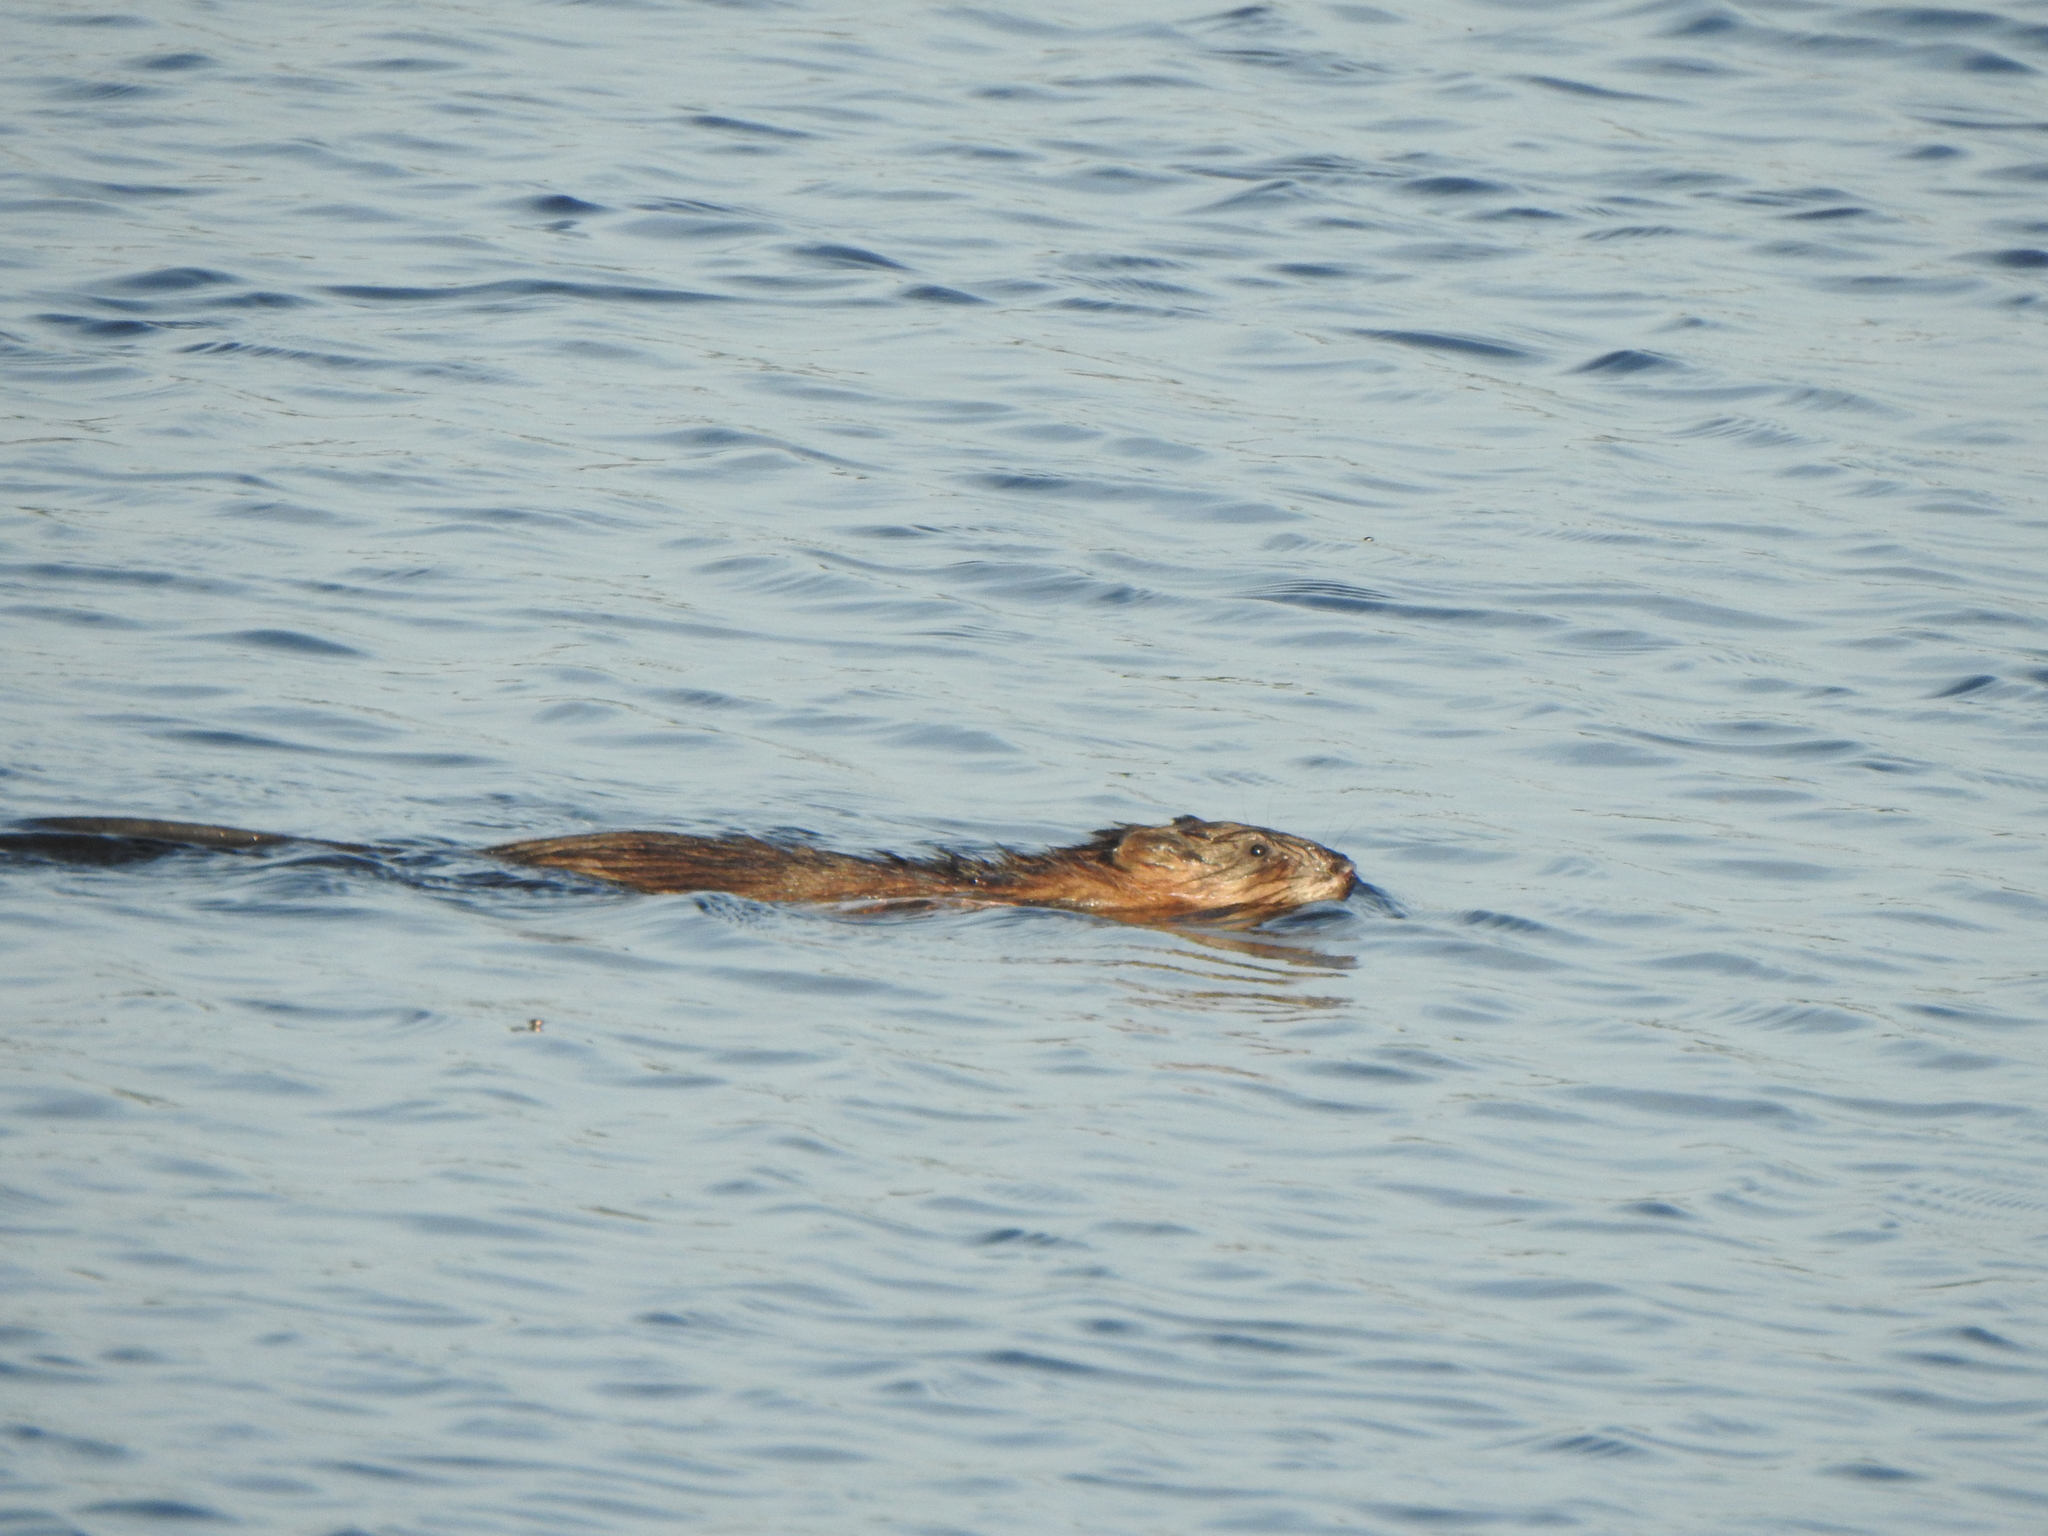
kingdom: Animalia
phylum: Chordata
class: Mammalia
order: Rodentia
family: Cricetidae
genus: Ondatra
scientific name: Ondatra zibethicus
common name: Muskrat
